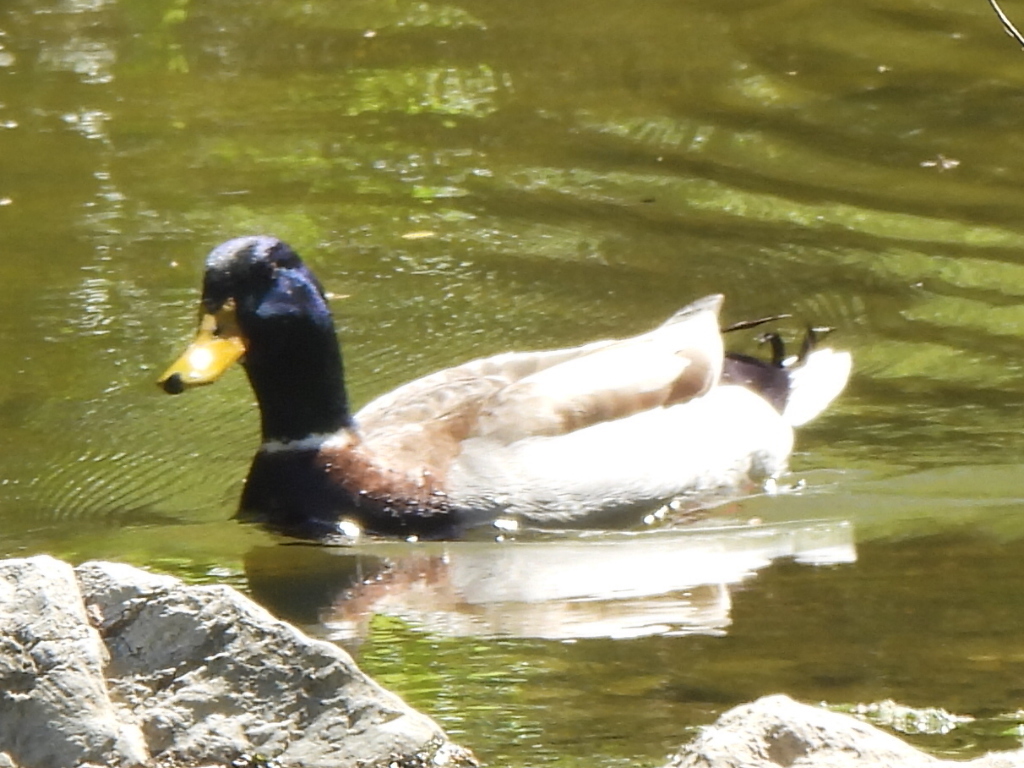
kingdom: Animalia
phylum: Chordata
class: Aves
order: Anseriformes
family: Anatidae
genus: Anas
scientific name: Anas platyrhynchos
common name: Mallard
